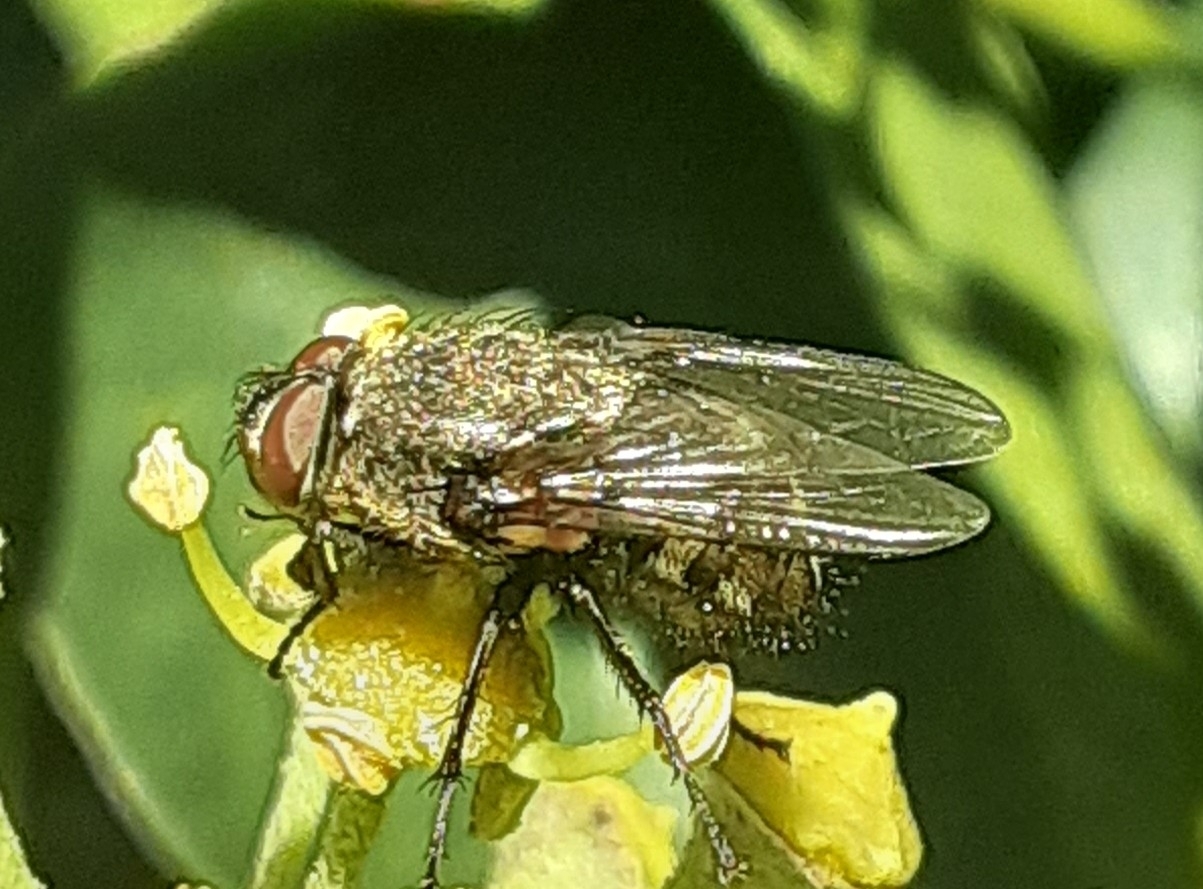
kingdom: Animalia
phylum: Arthropoda
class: Insecta
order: Diptera
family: Polleniidae
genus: Pollenia
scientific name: Pollenia
